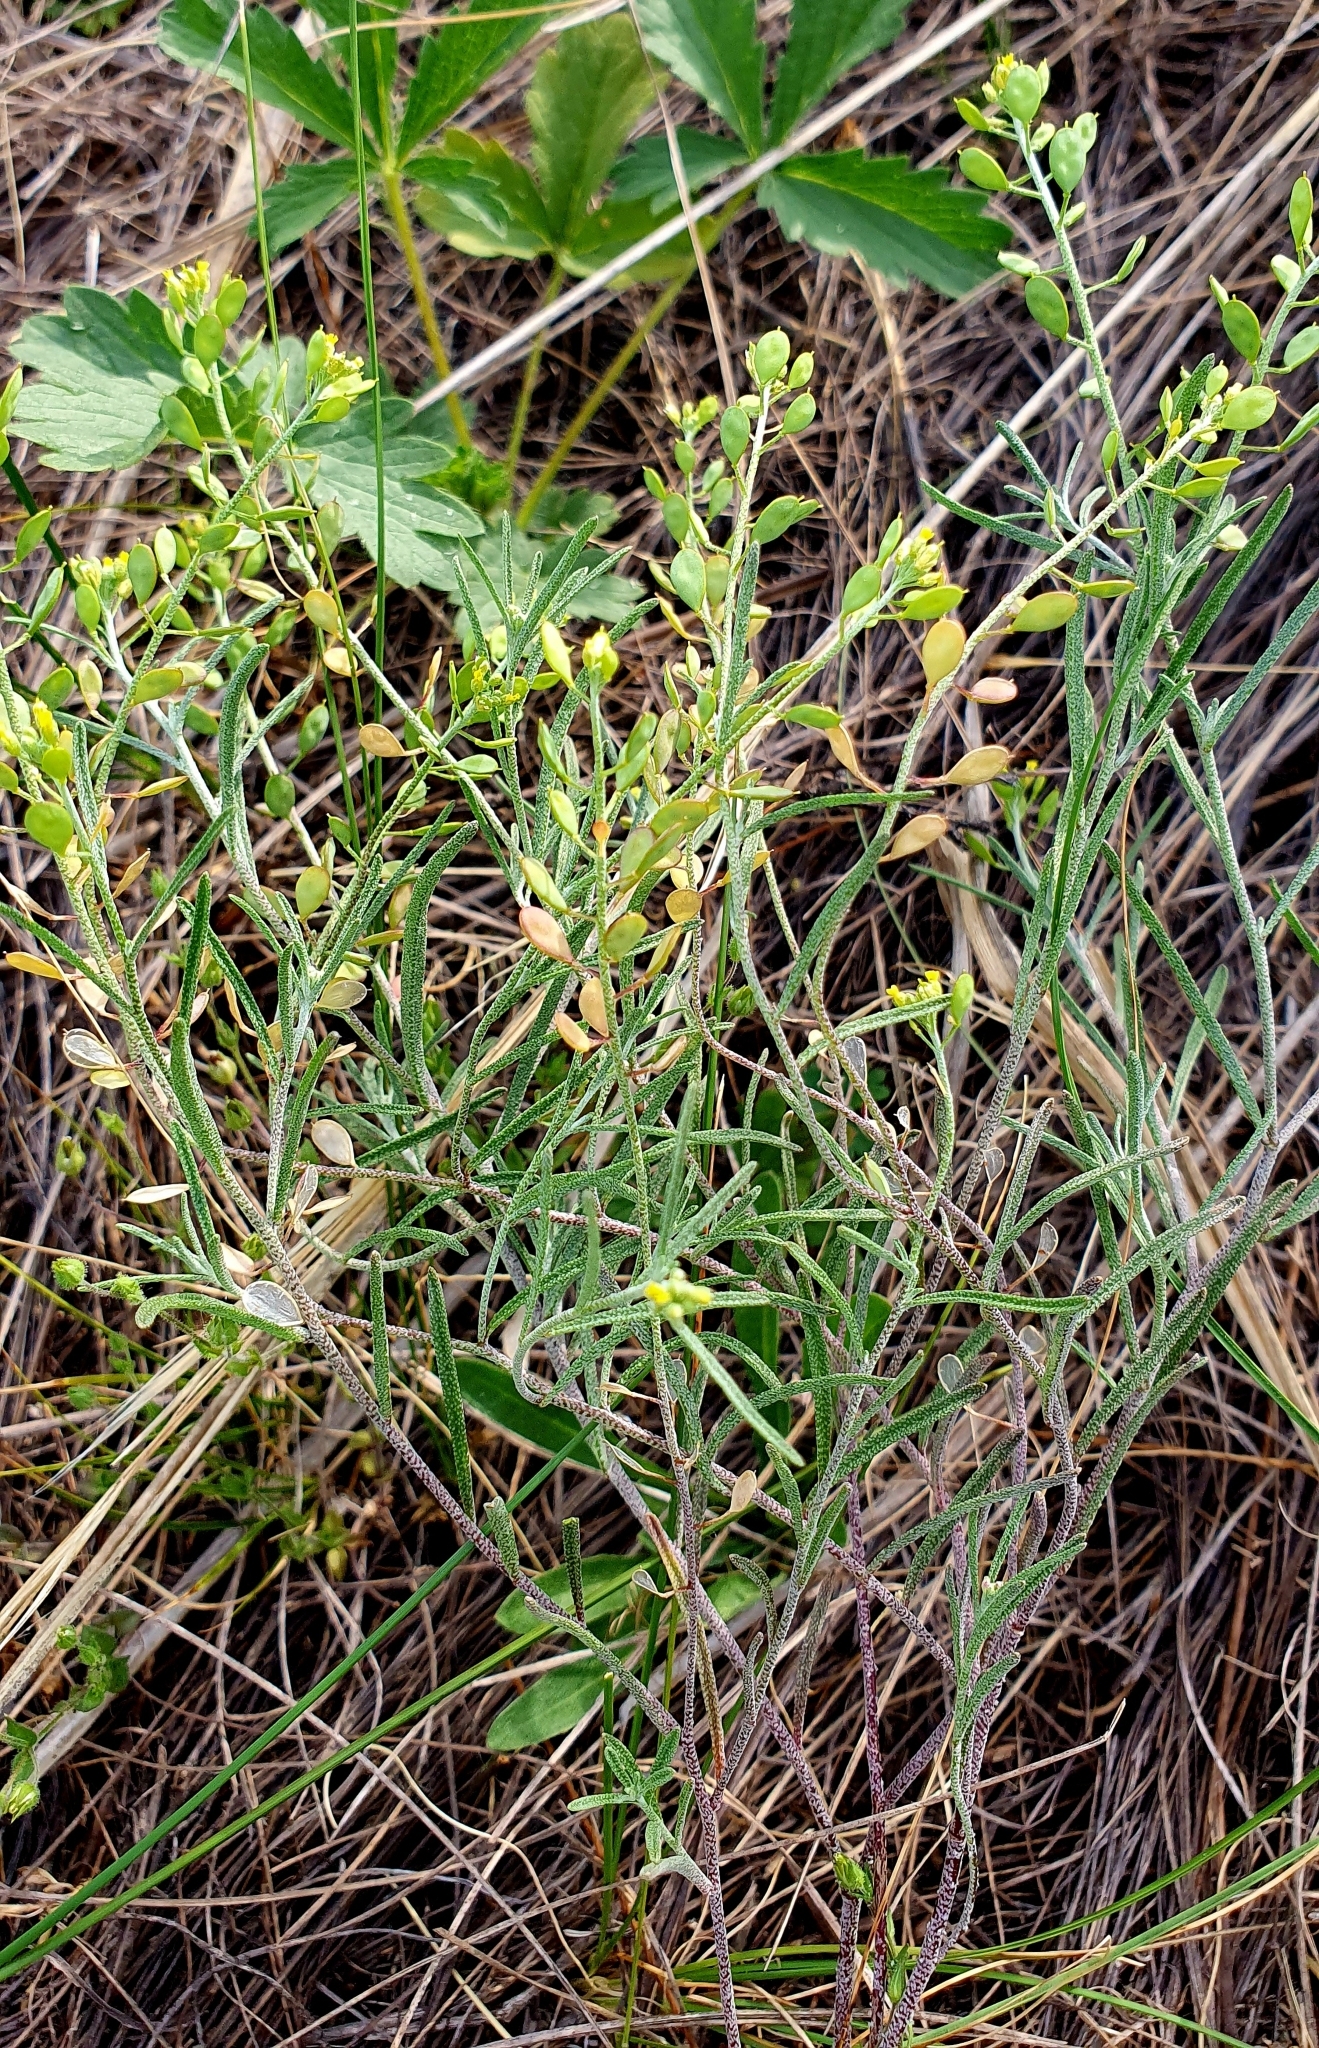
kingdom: Plantae
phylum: Tracheophyta
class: Magnoliopsida
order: Brassicales
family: Brassicaceae
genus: Meniocus
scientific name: Meniocus linifolius
